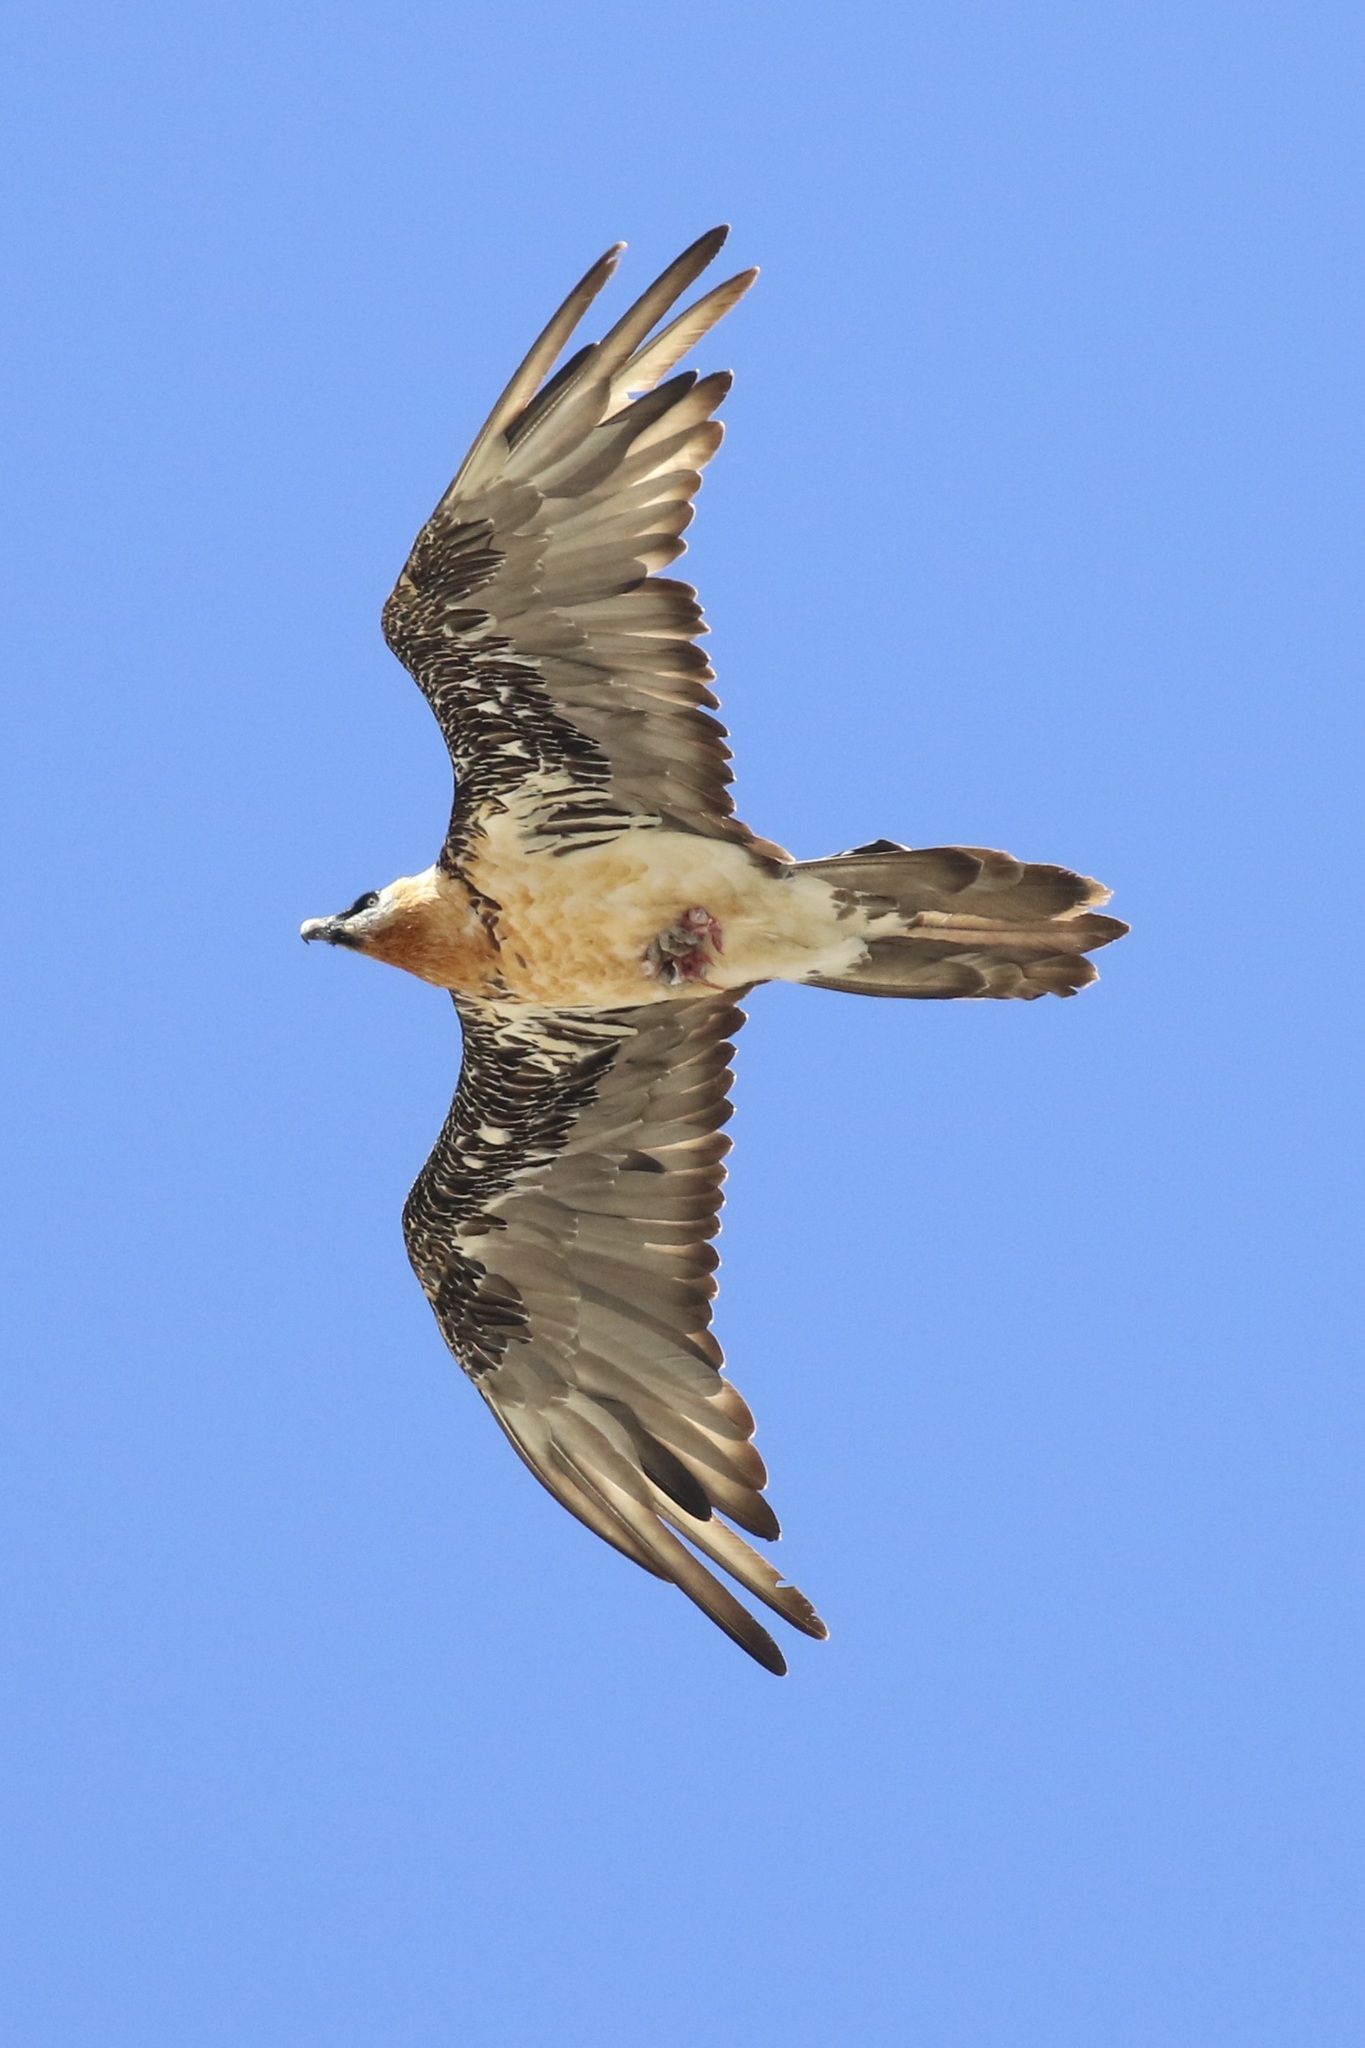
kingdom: Animalia
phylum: Chordata
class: Aves
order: Accipitriformes
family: Accipitridae
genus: Gypaetus
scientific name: Gypaetus barbatus
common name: Bearded vulture
